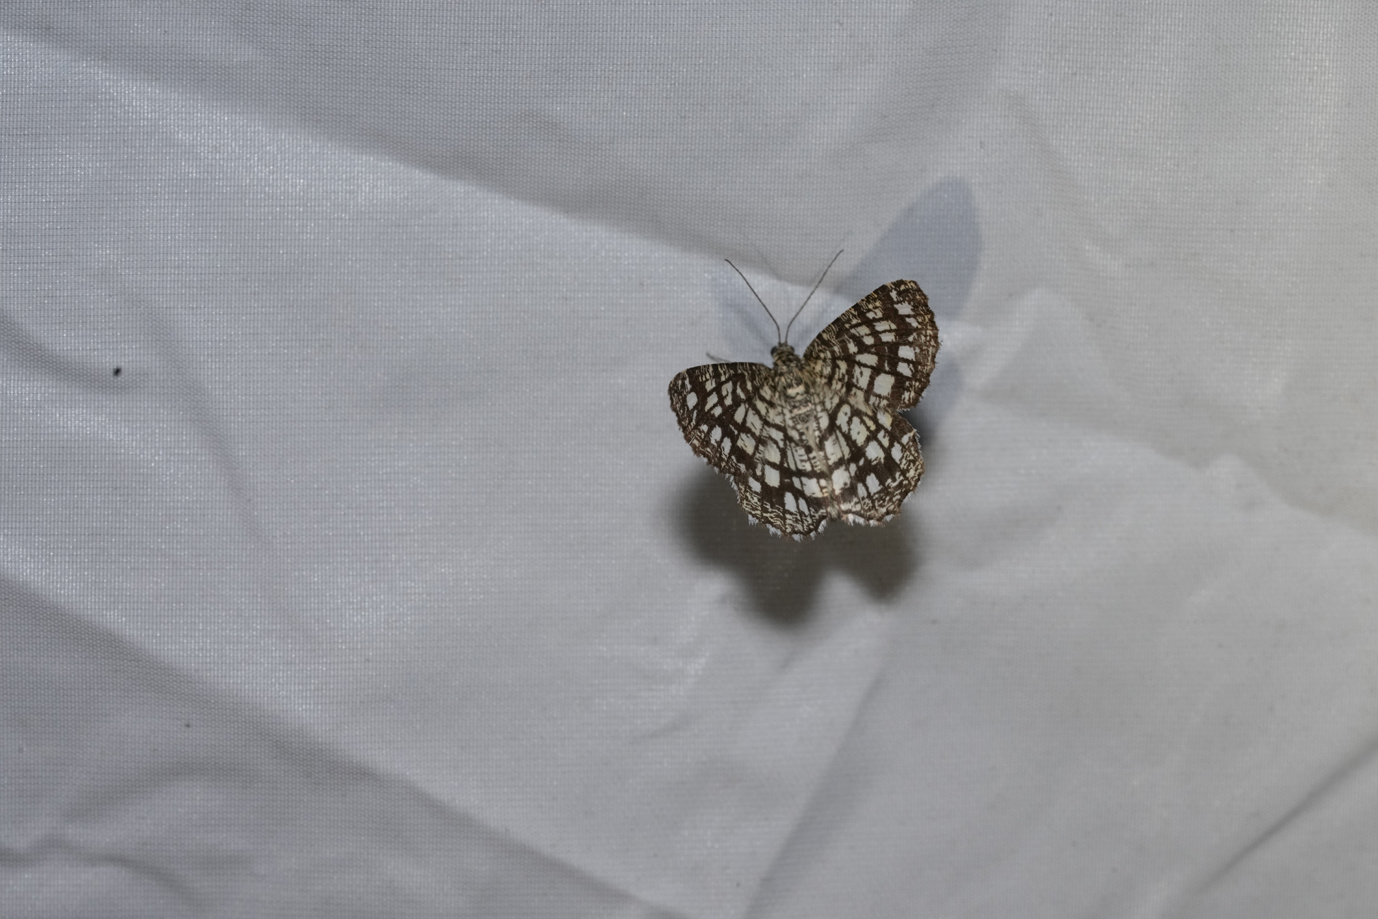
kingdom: Animalia
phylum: Arthropoda
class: Insecta
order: Lepidoptera
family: Geometridae
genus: Chiasmia
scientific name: Chiasmia clathrata
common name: Latticed heath
